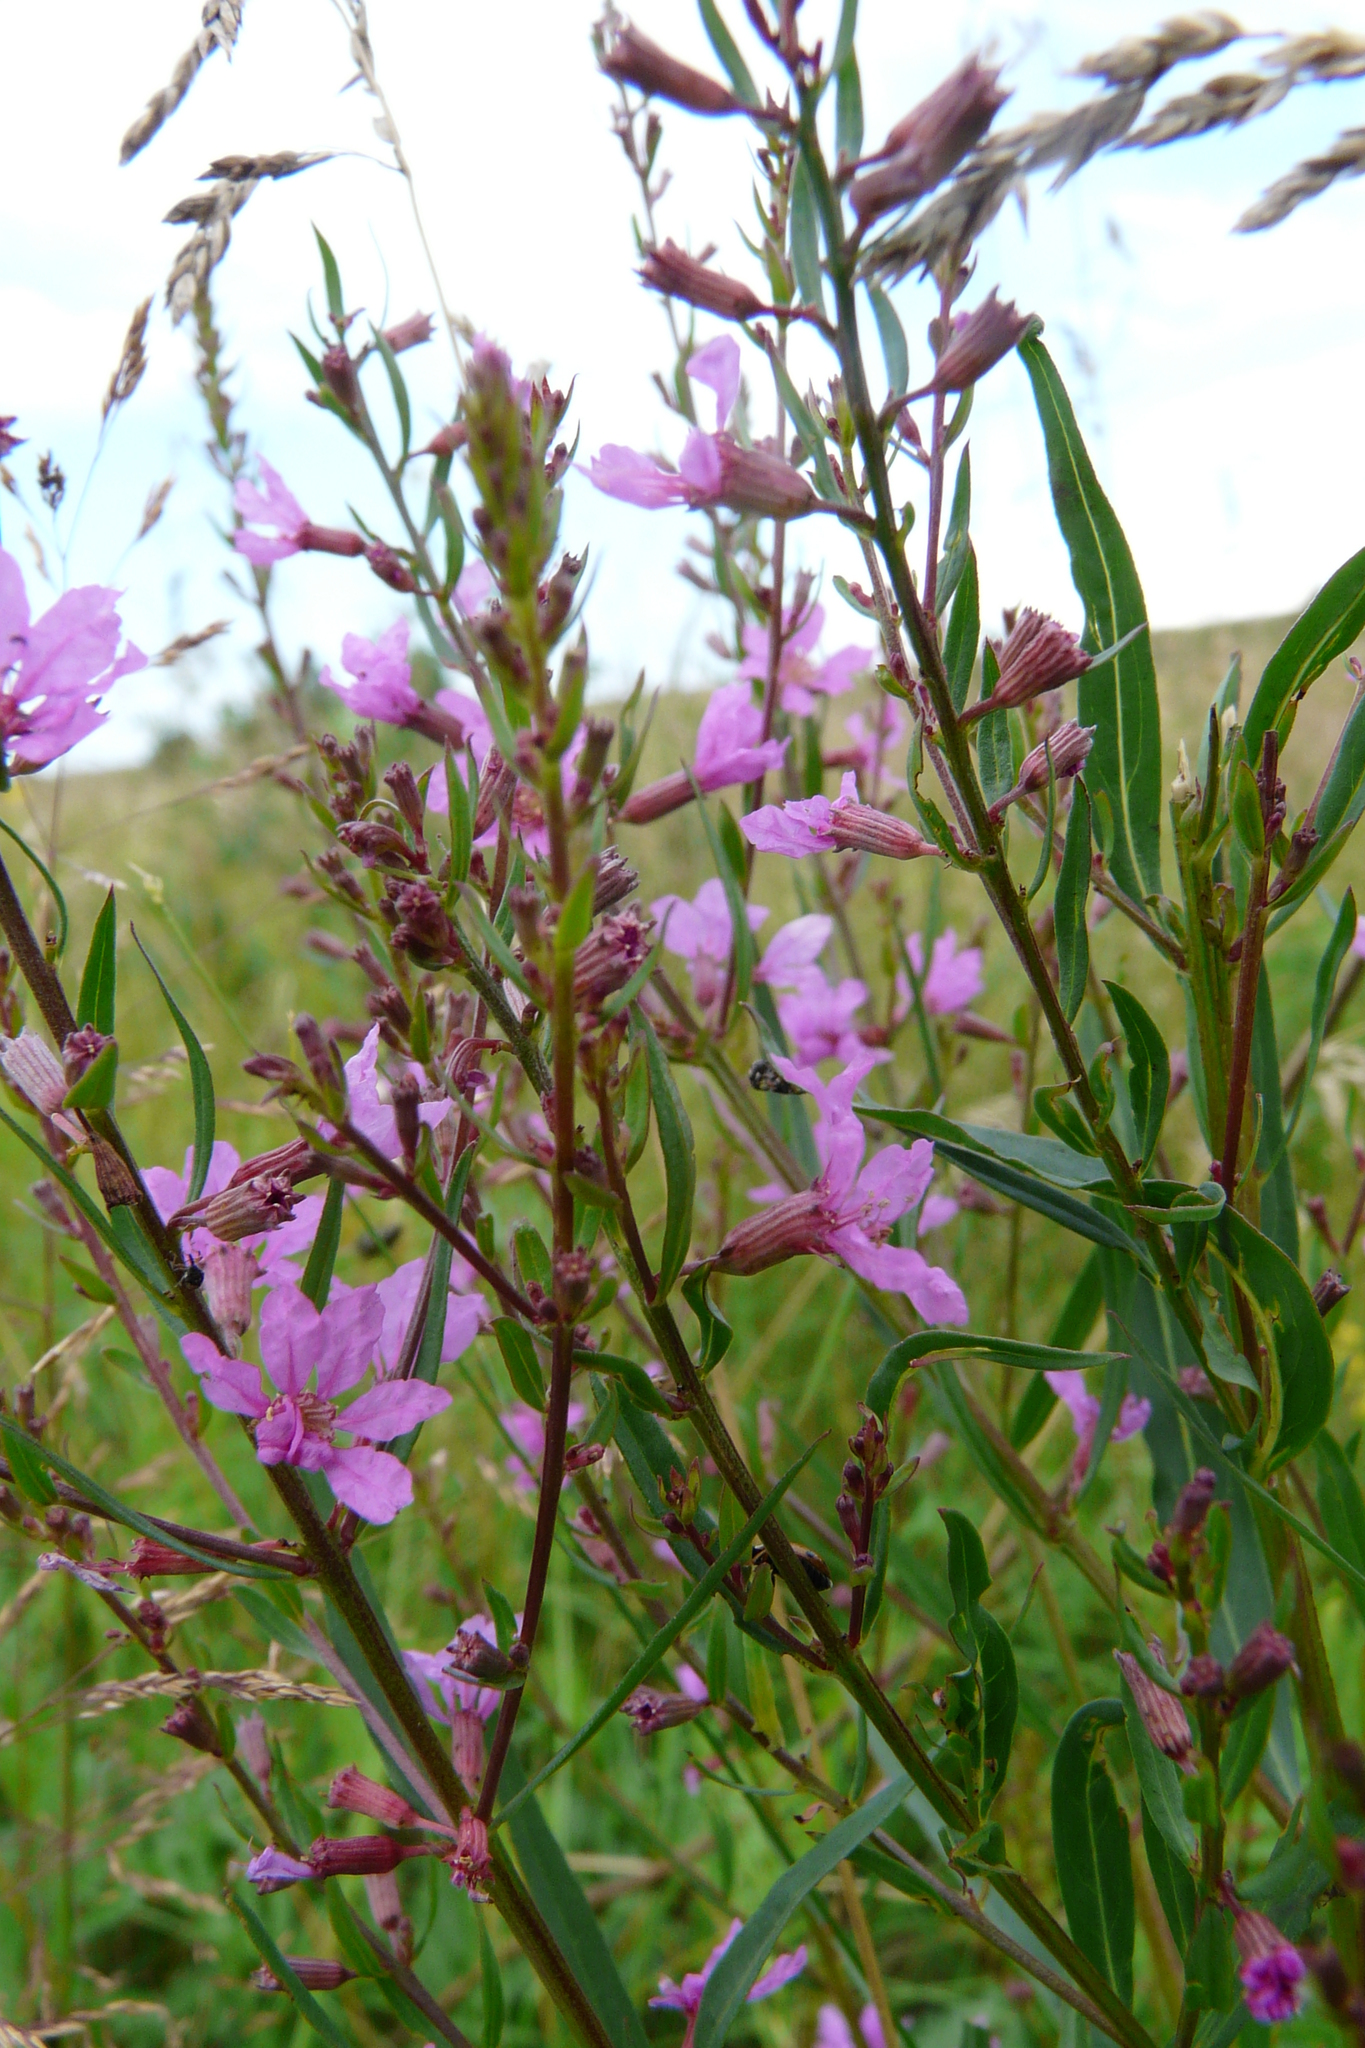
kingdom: Plantae
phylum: Tracheophyta
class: Magnoliopsida
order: Myrtales
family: Lythraceae
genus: Lythrum
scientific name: Lythrum virgatum
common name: European wand loosestrife
